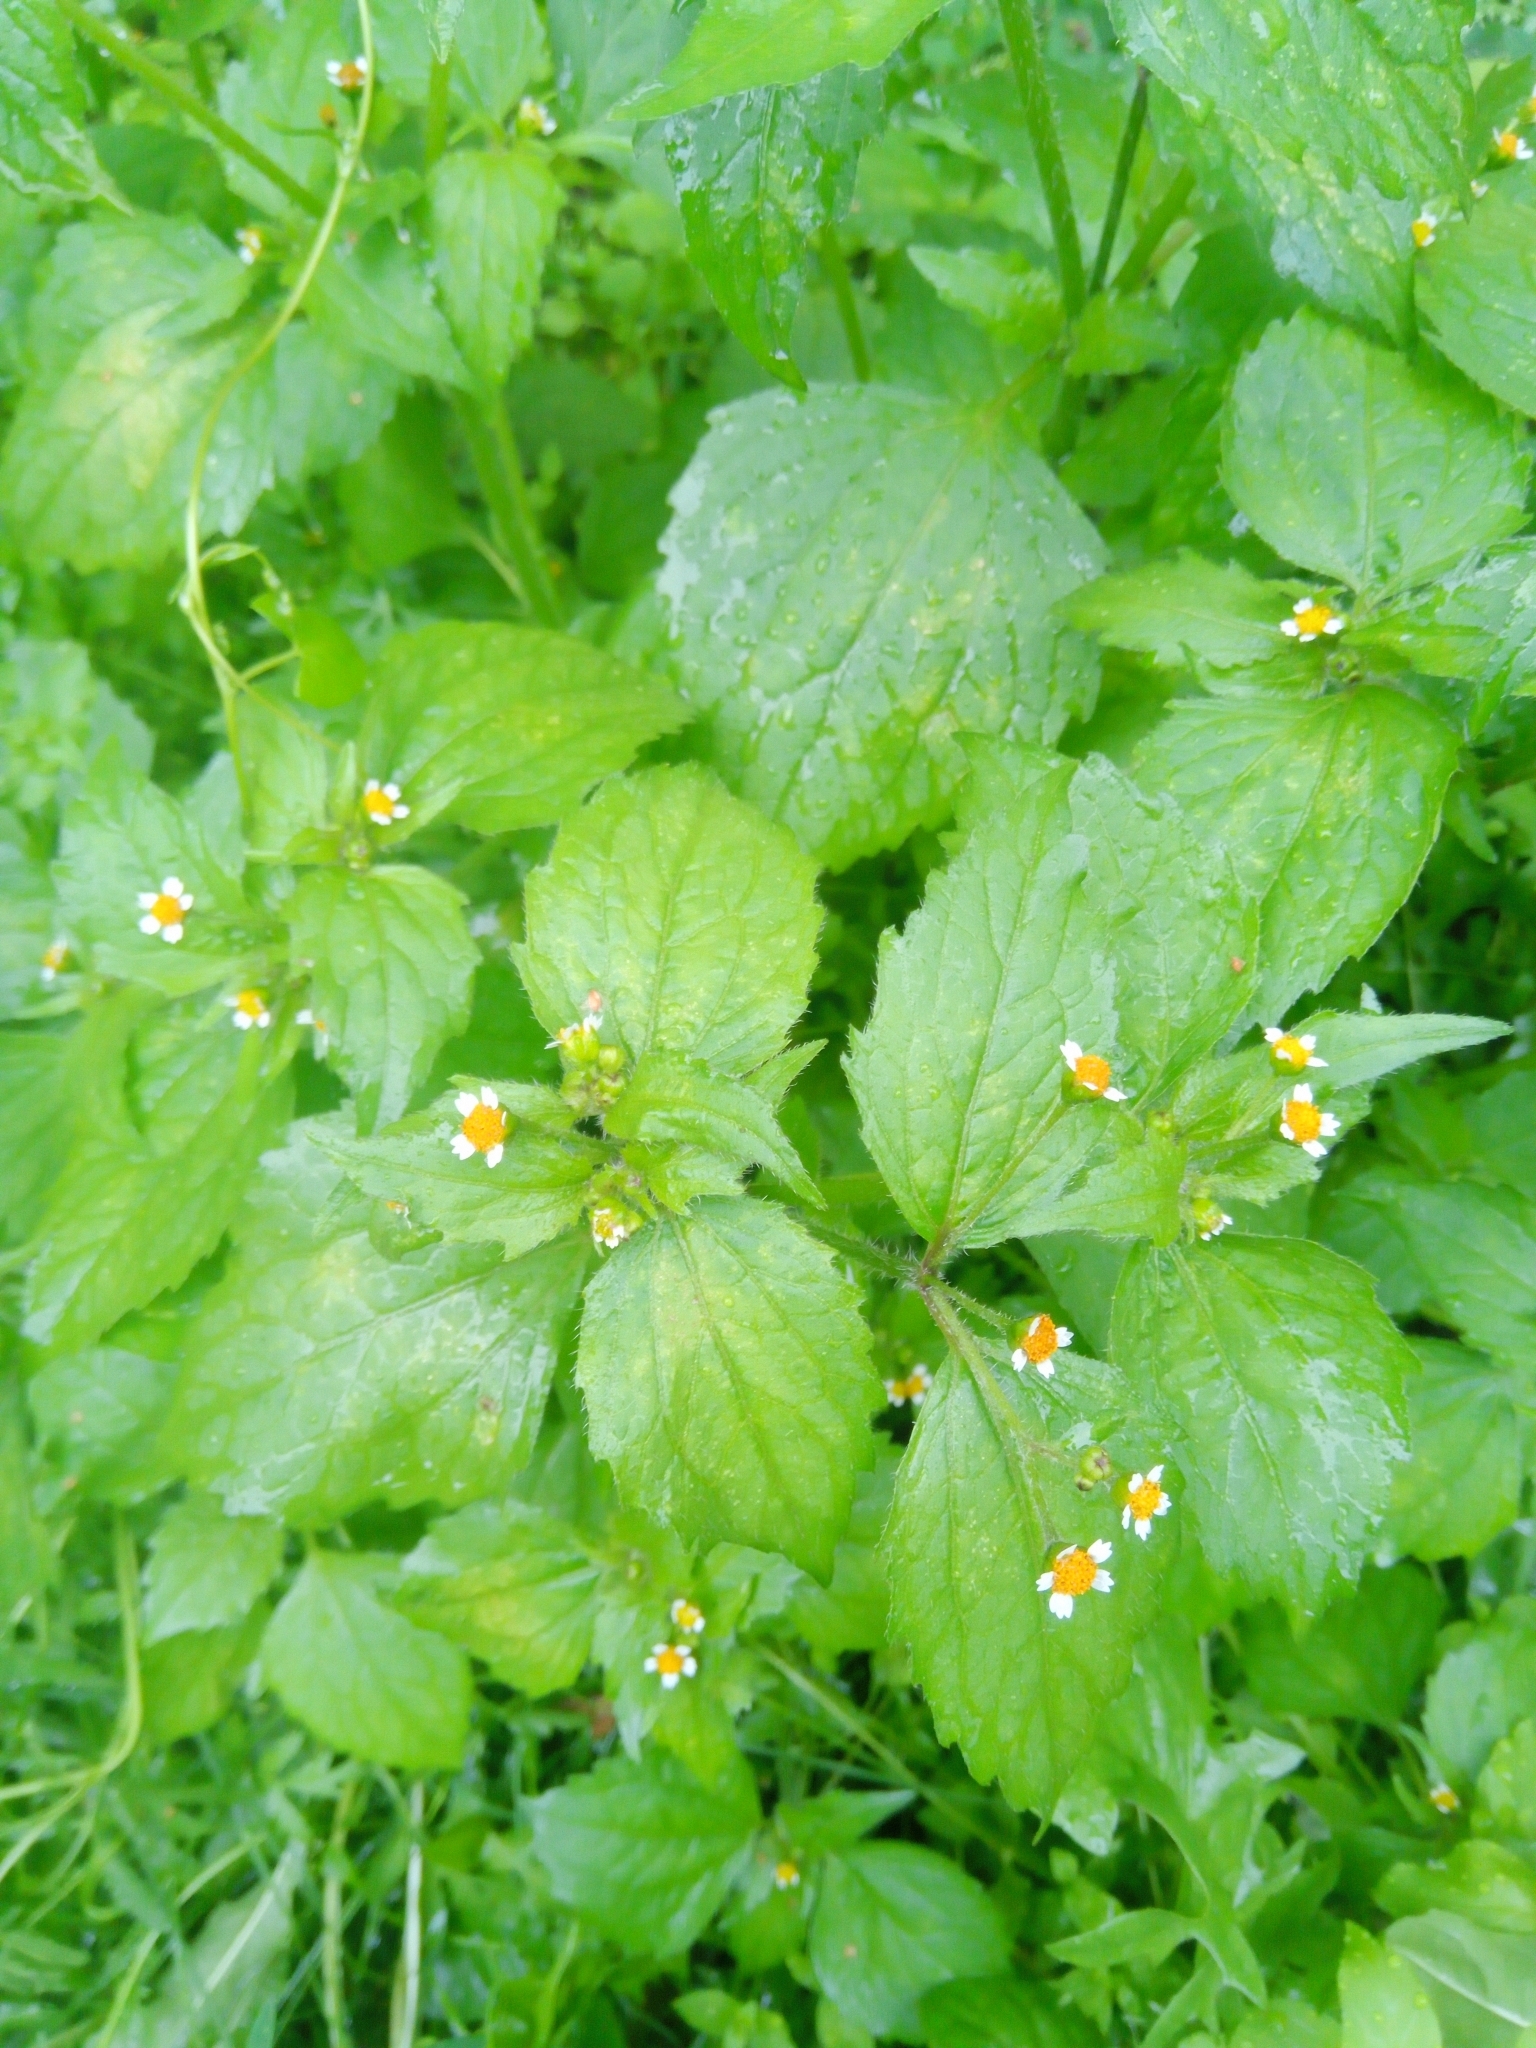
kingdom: Plantae
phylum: Tracheophyta
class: Magnoliopsida
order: Asterales
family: Asteraceae
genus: Galinsoga
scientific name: Galinsoga quadriradiata
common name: Shaggy soldier
